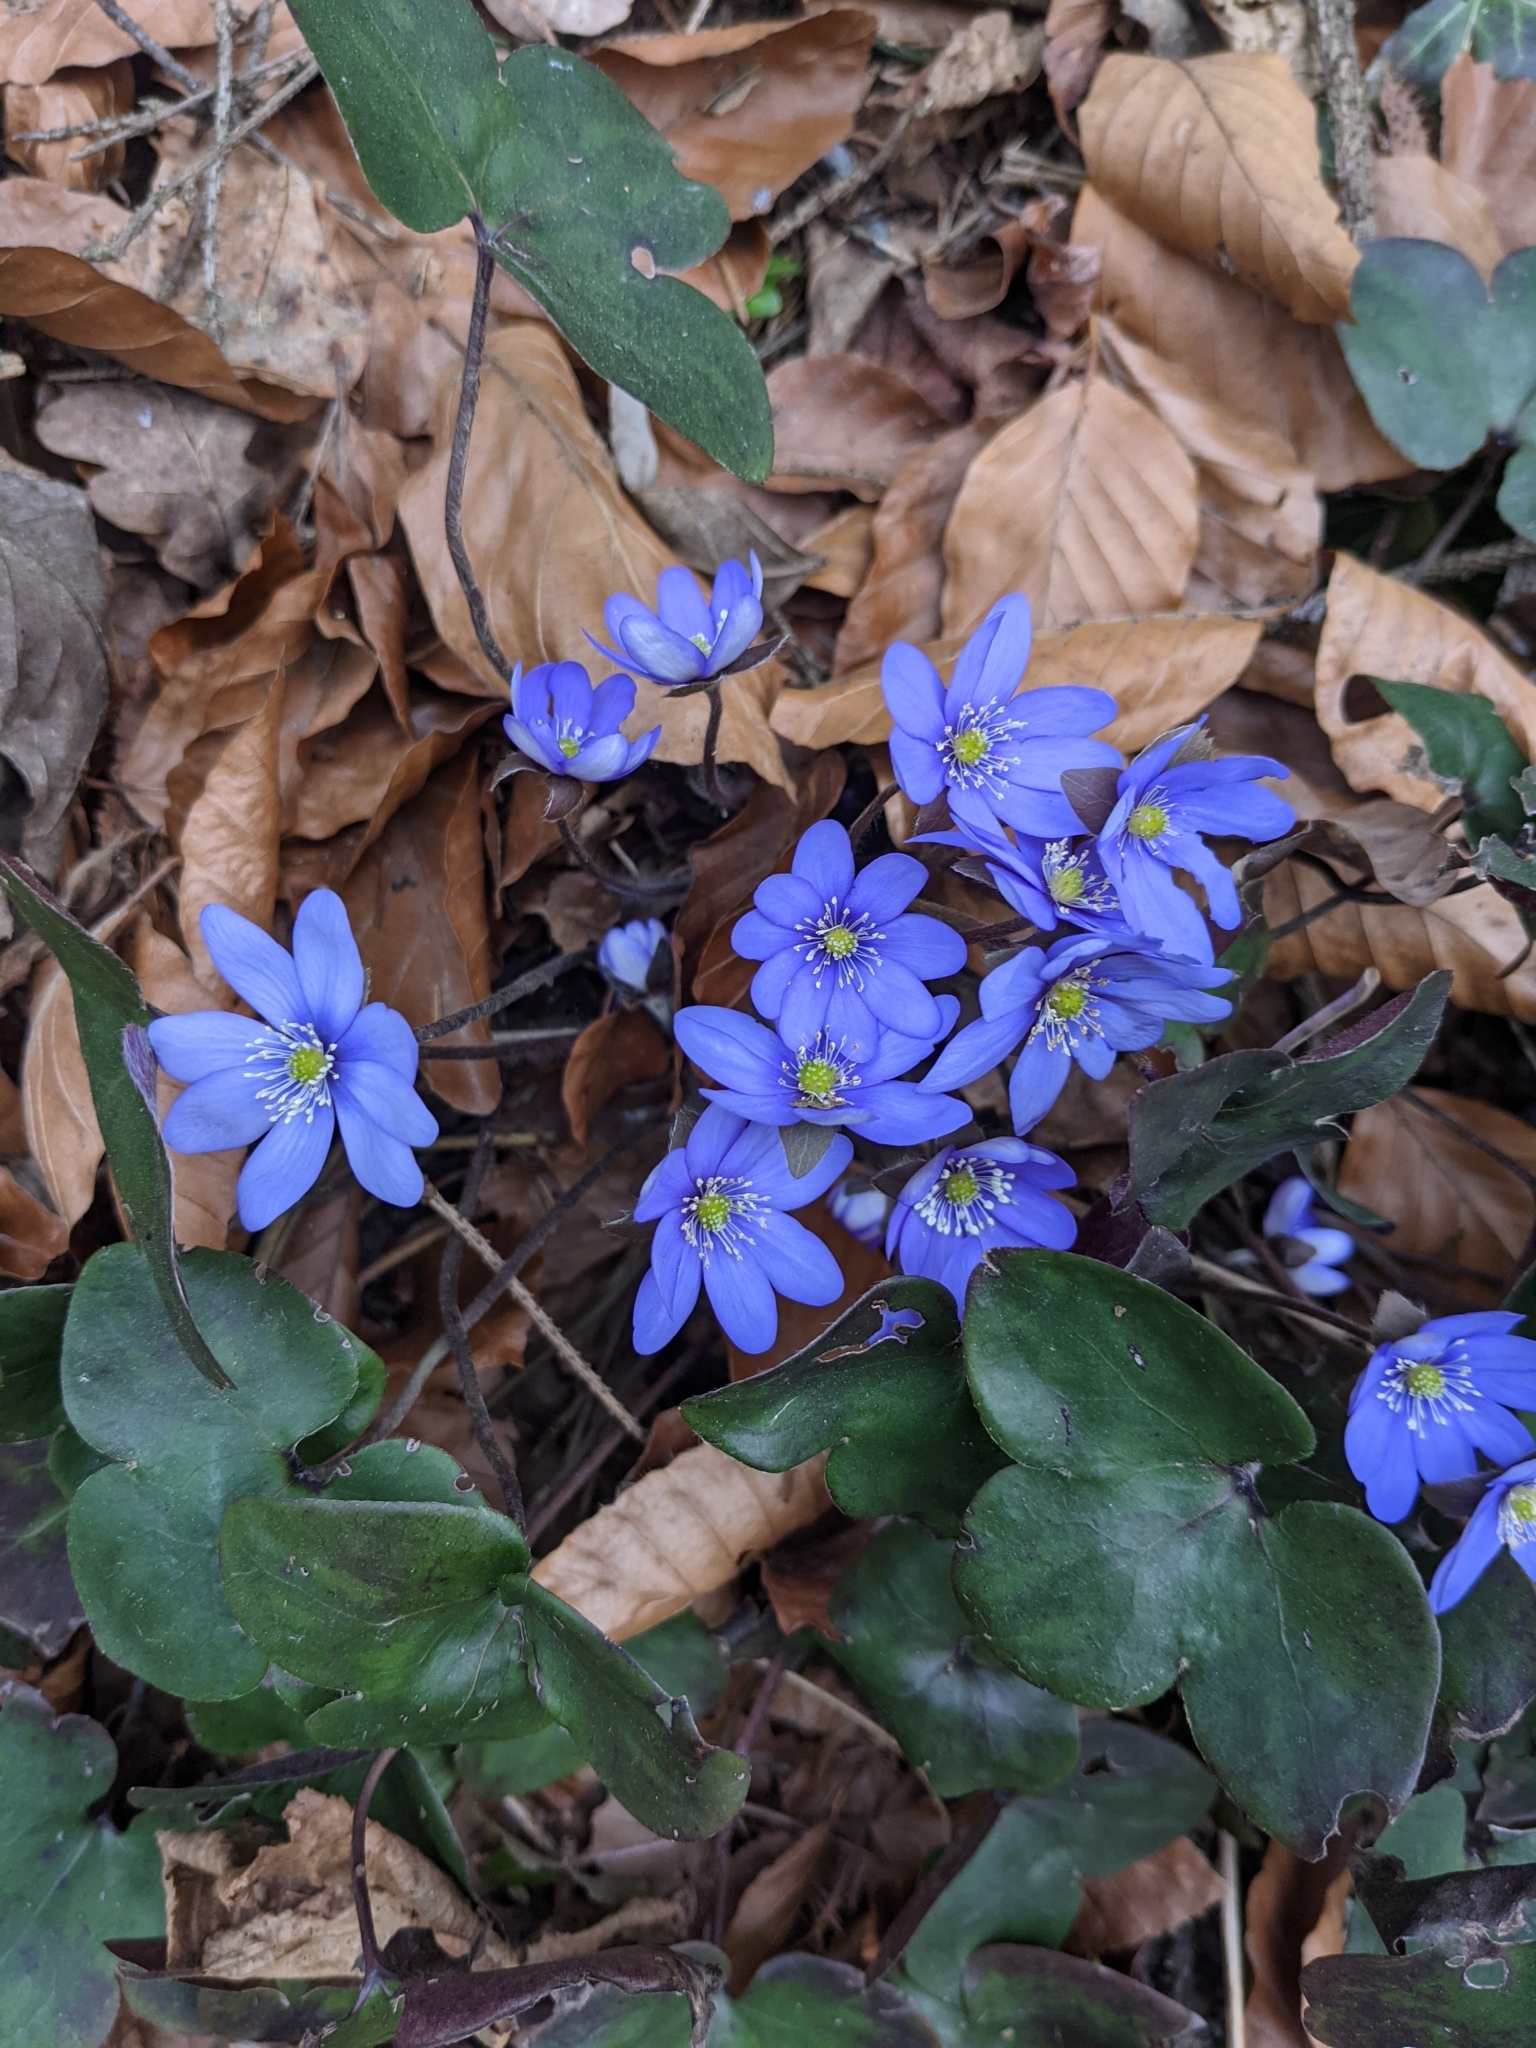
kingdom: Plantae
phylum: Tracheophyta
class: Magnoliopsida
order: Ranunculales
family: Ranunculaceae
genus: Hepatica
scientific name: Hepatica nobilis
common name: Liverleaf
